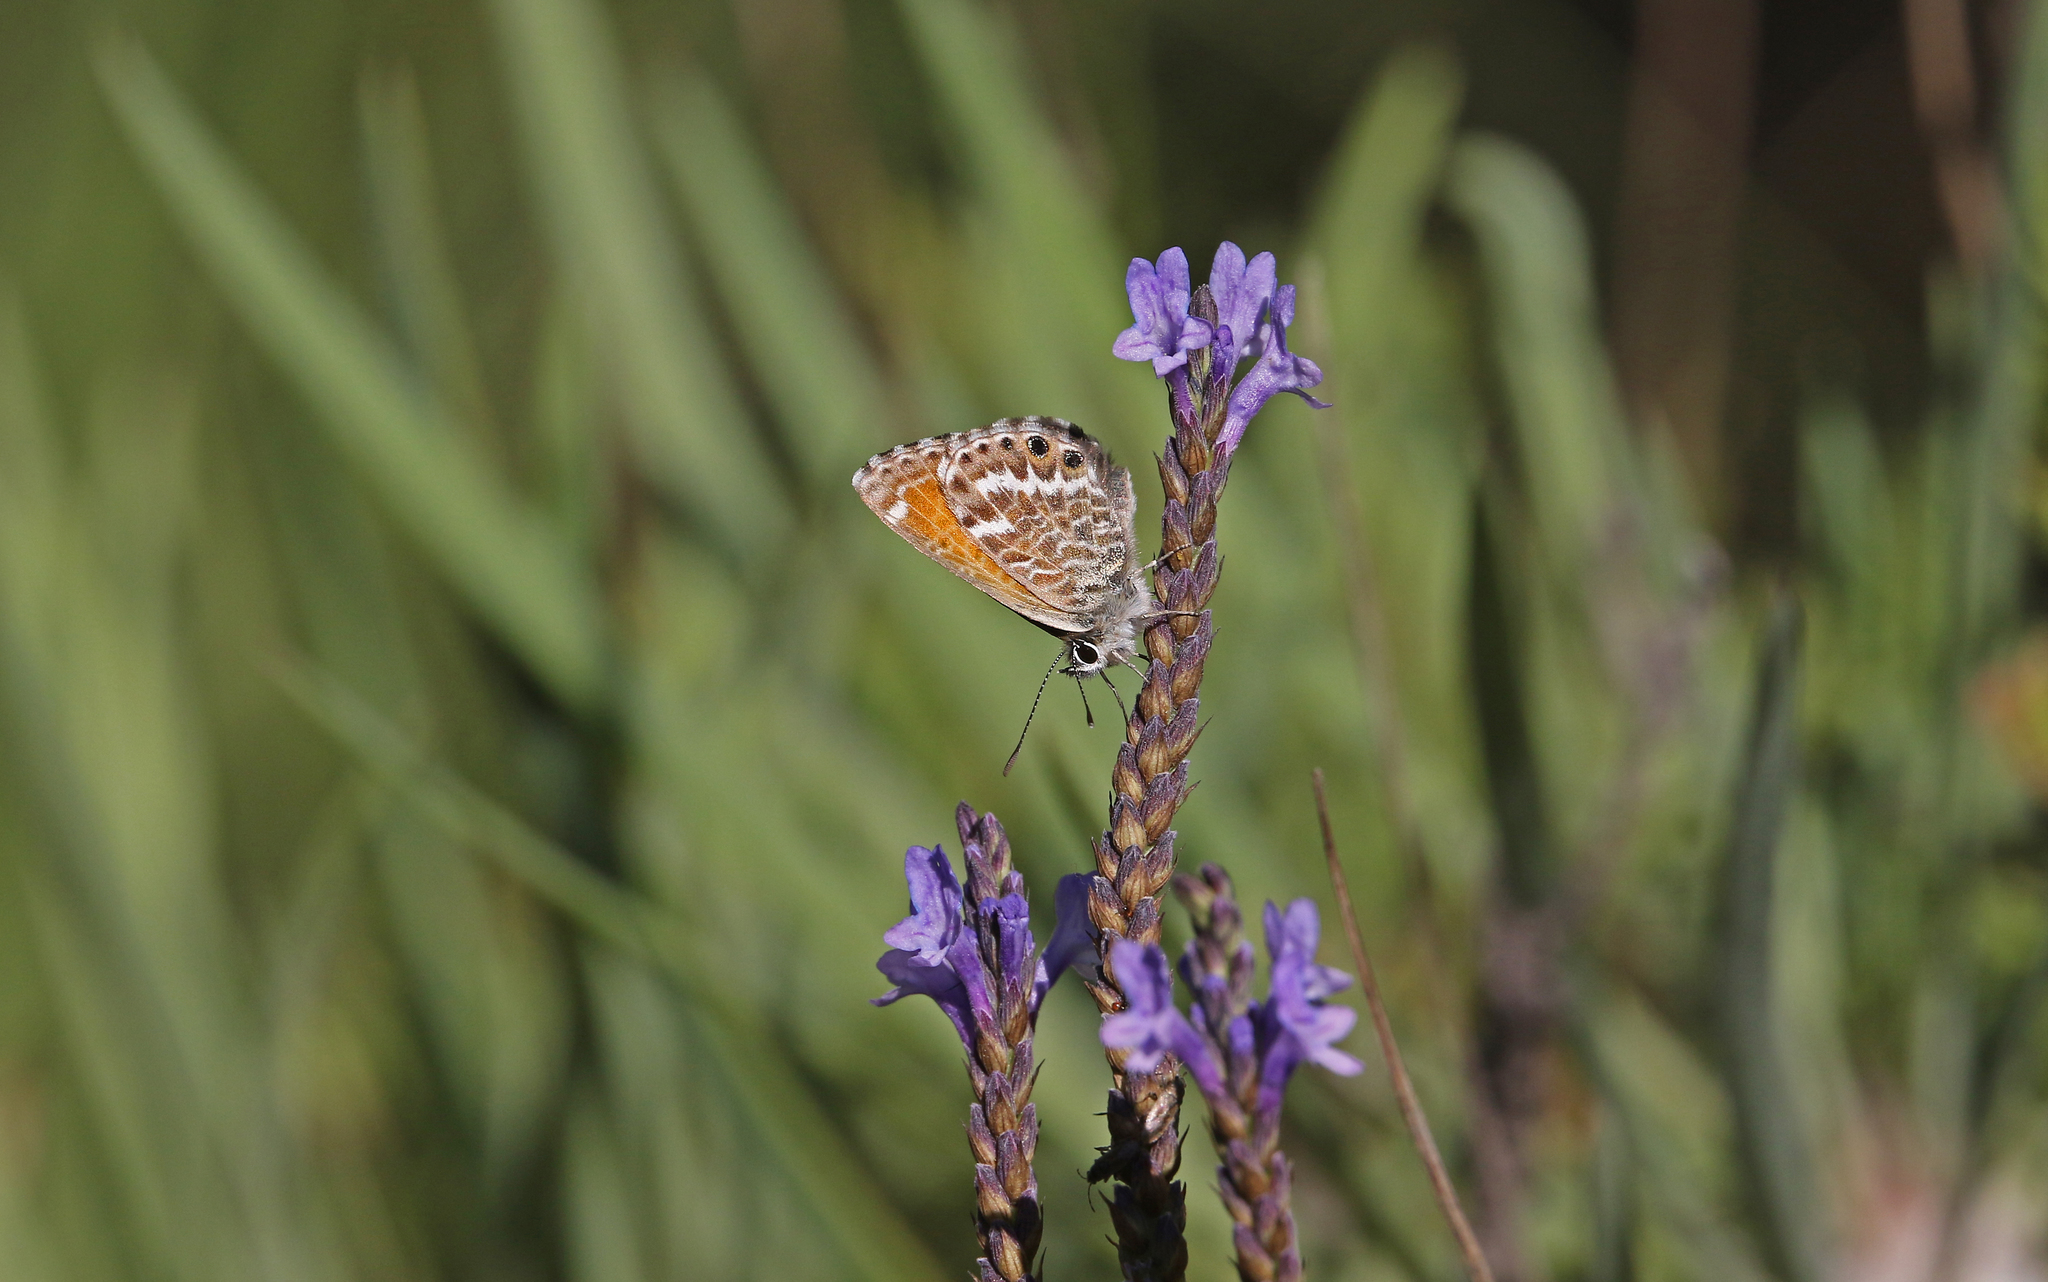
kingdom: Animalia
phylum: Arthropoda
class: Insecta
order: Lepidoptera
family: Lycaenidae
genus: Cyclyrius
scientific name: Cyclyrius webbianus
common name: Canary blue
